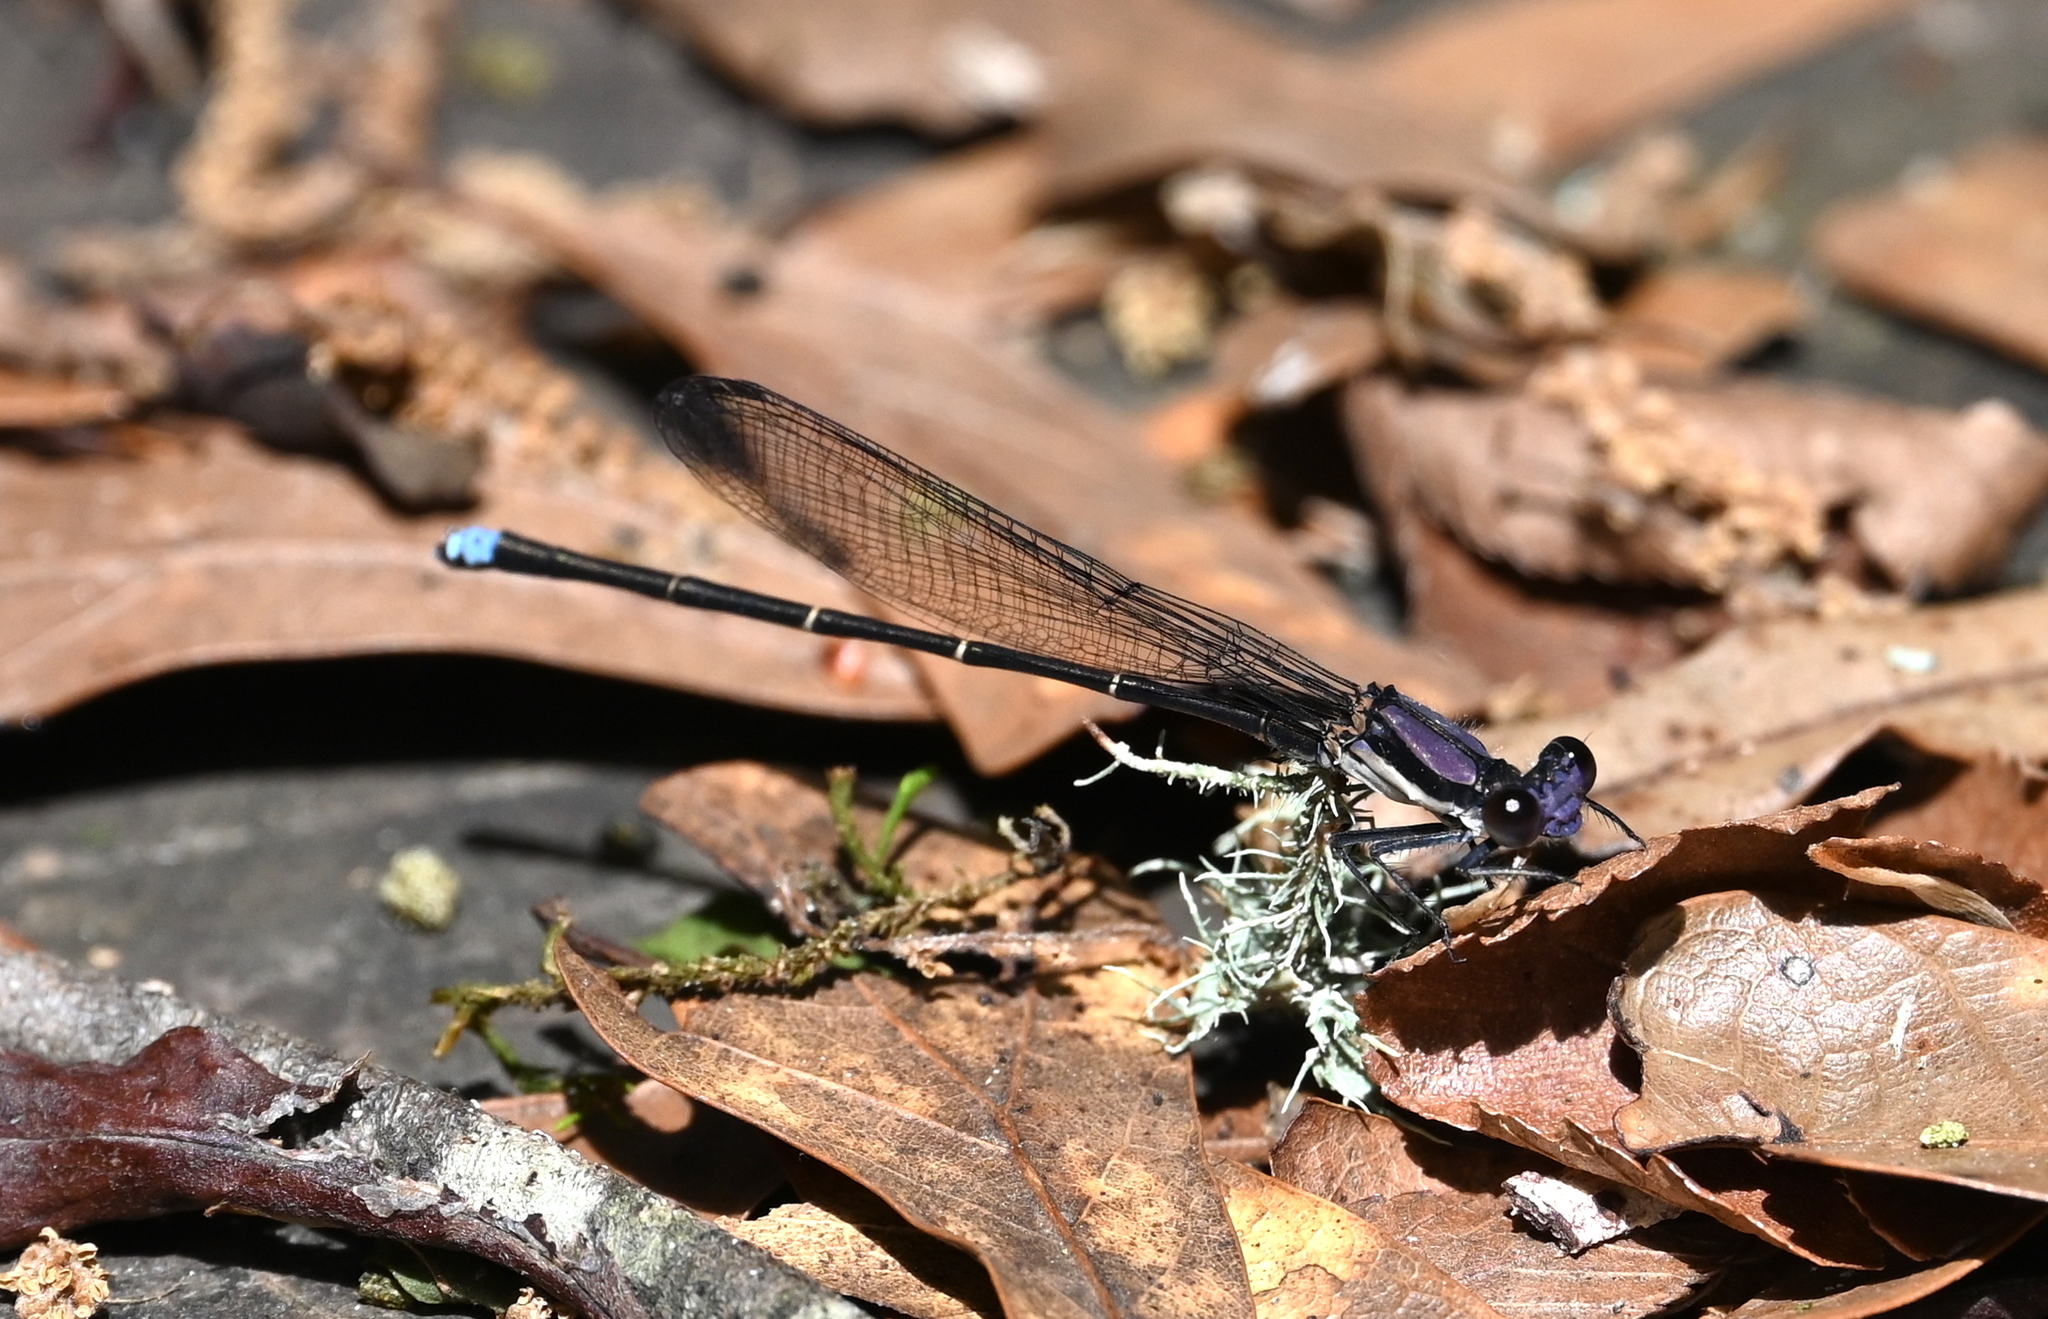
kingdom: Animalia
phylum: Arthropoda
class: Insecta
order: Odonata
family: Coenagrionidae
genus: Argia
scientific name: Argia tibialis
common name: Blue-tipped dancer
